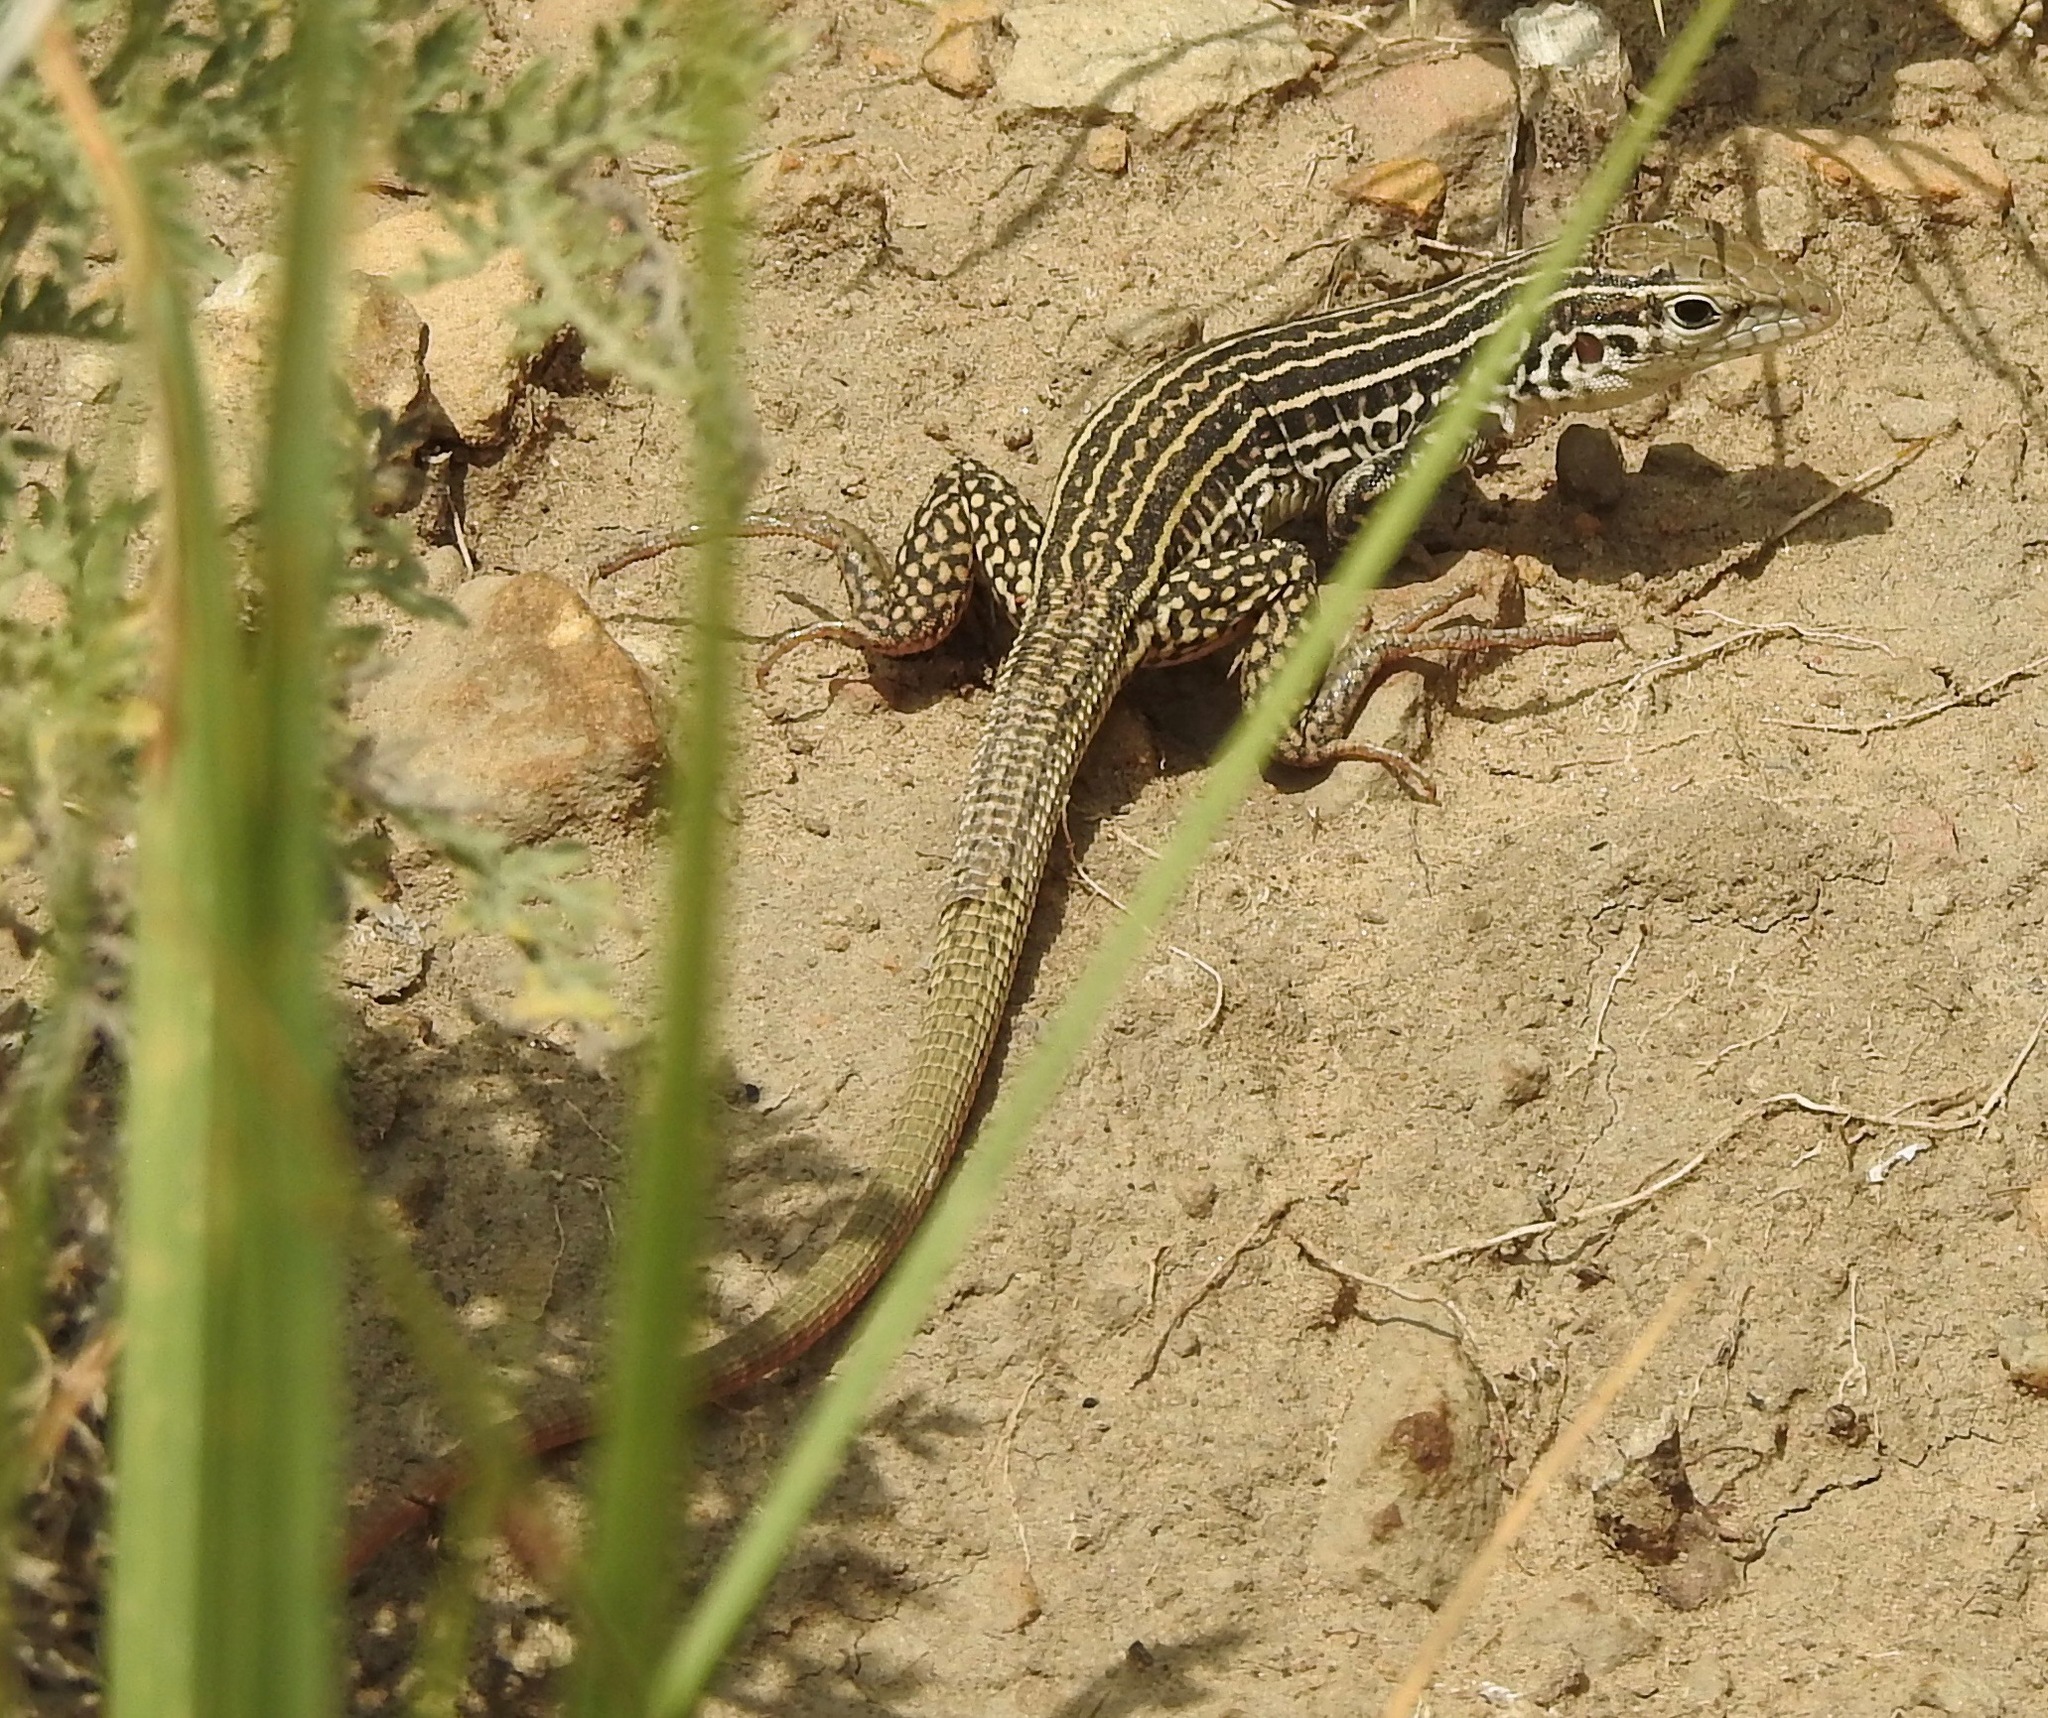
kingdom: Animalia
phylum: Chordata
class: Squamata
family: Teiidae
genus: Aspidoscelis
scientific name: Aspidoscelis tesselatus
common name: Common checkered whiptail [tesselata]
